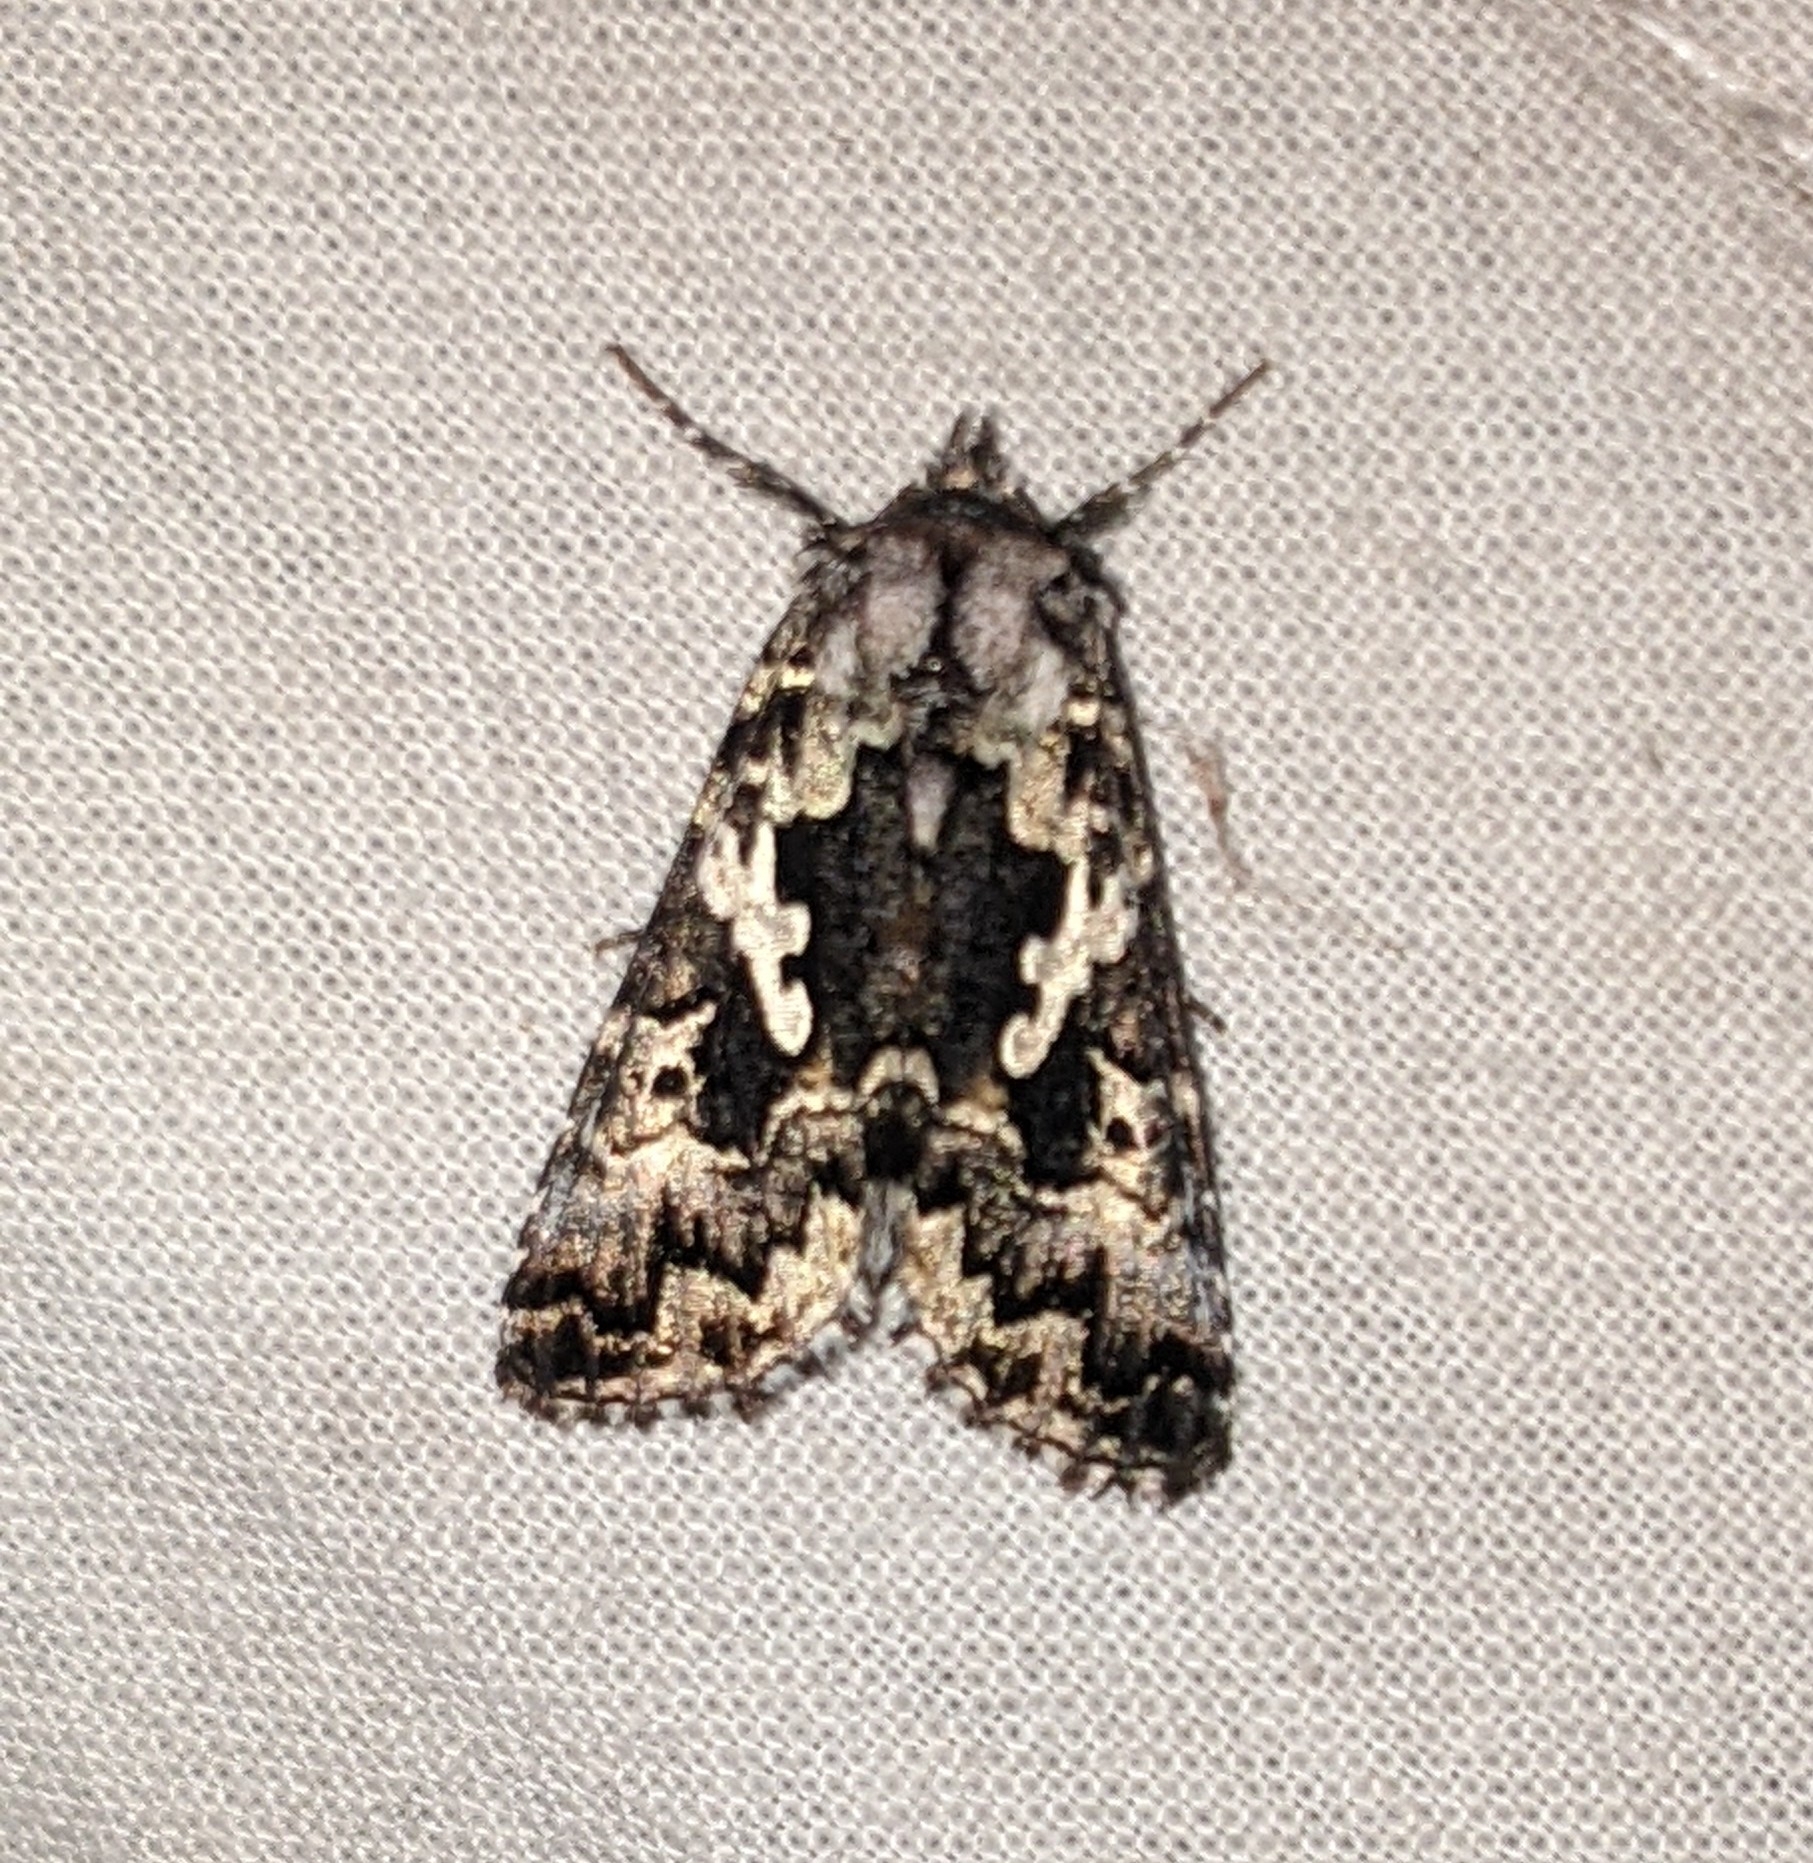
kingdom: Animalia
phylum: Arthropoda
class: Insecta
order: Lepidoptera
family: Noctuidae
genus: Syngrapha
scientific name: Syngrapha rectangula
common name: Angulated cutworm
